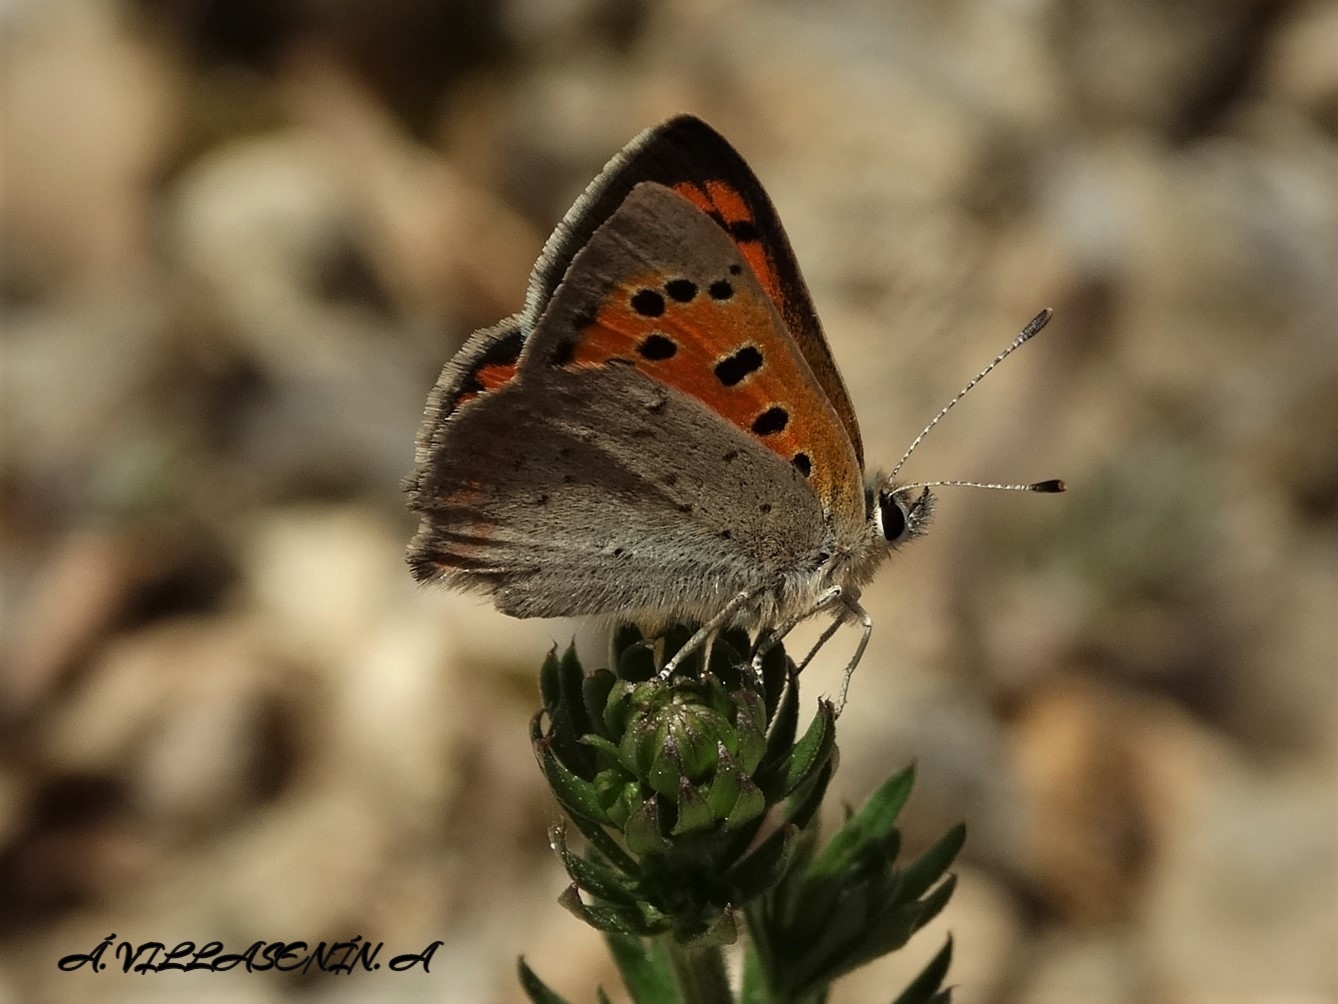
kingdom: Animalia
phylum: Arthropoda
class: Insecta
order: Lepidoptera
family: Lycaenidae
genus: Lycaena
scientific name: Lycaena phlaeas
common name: Small copper
